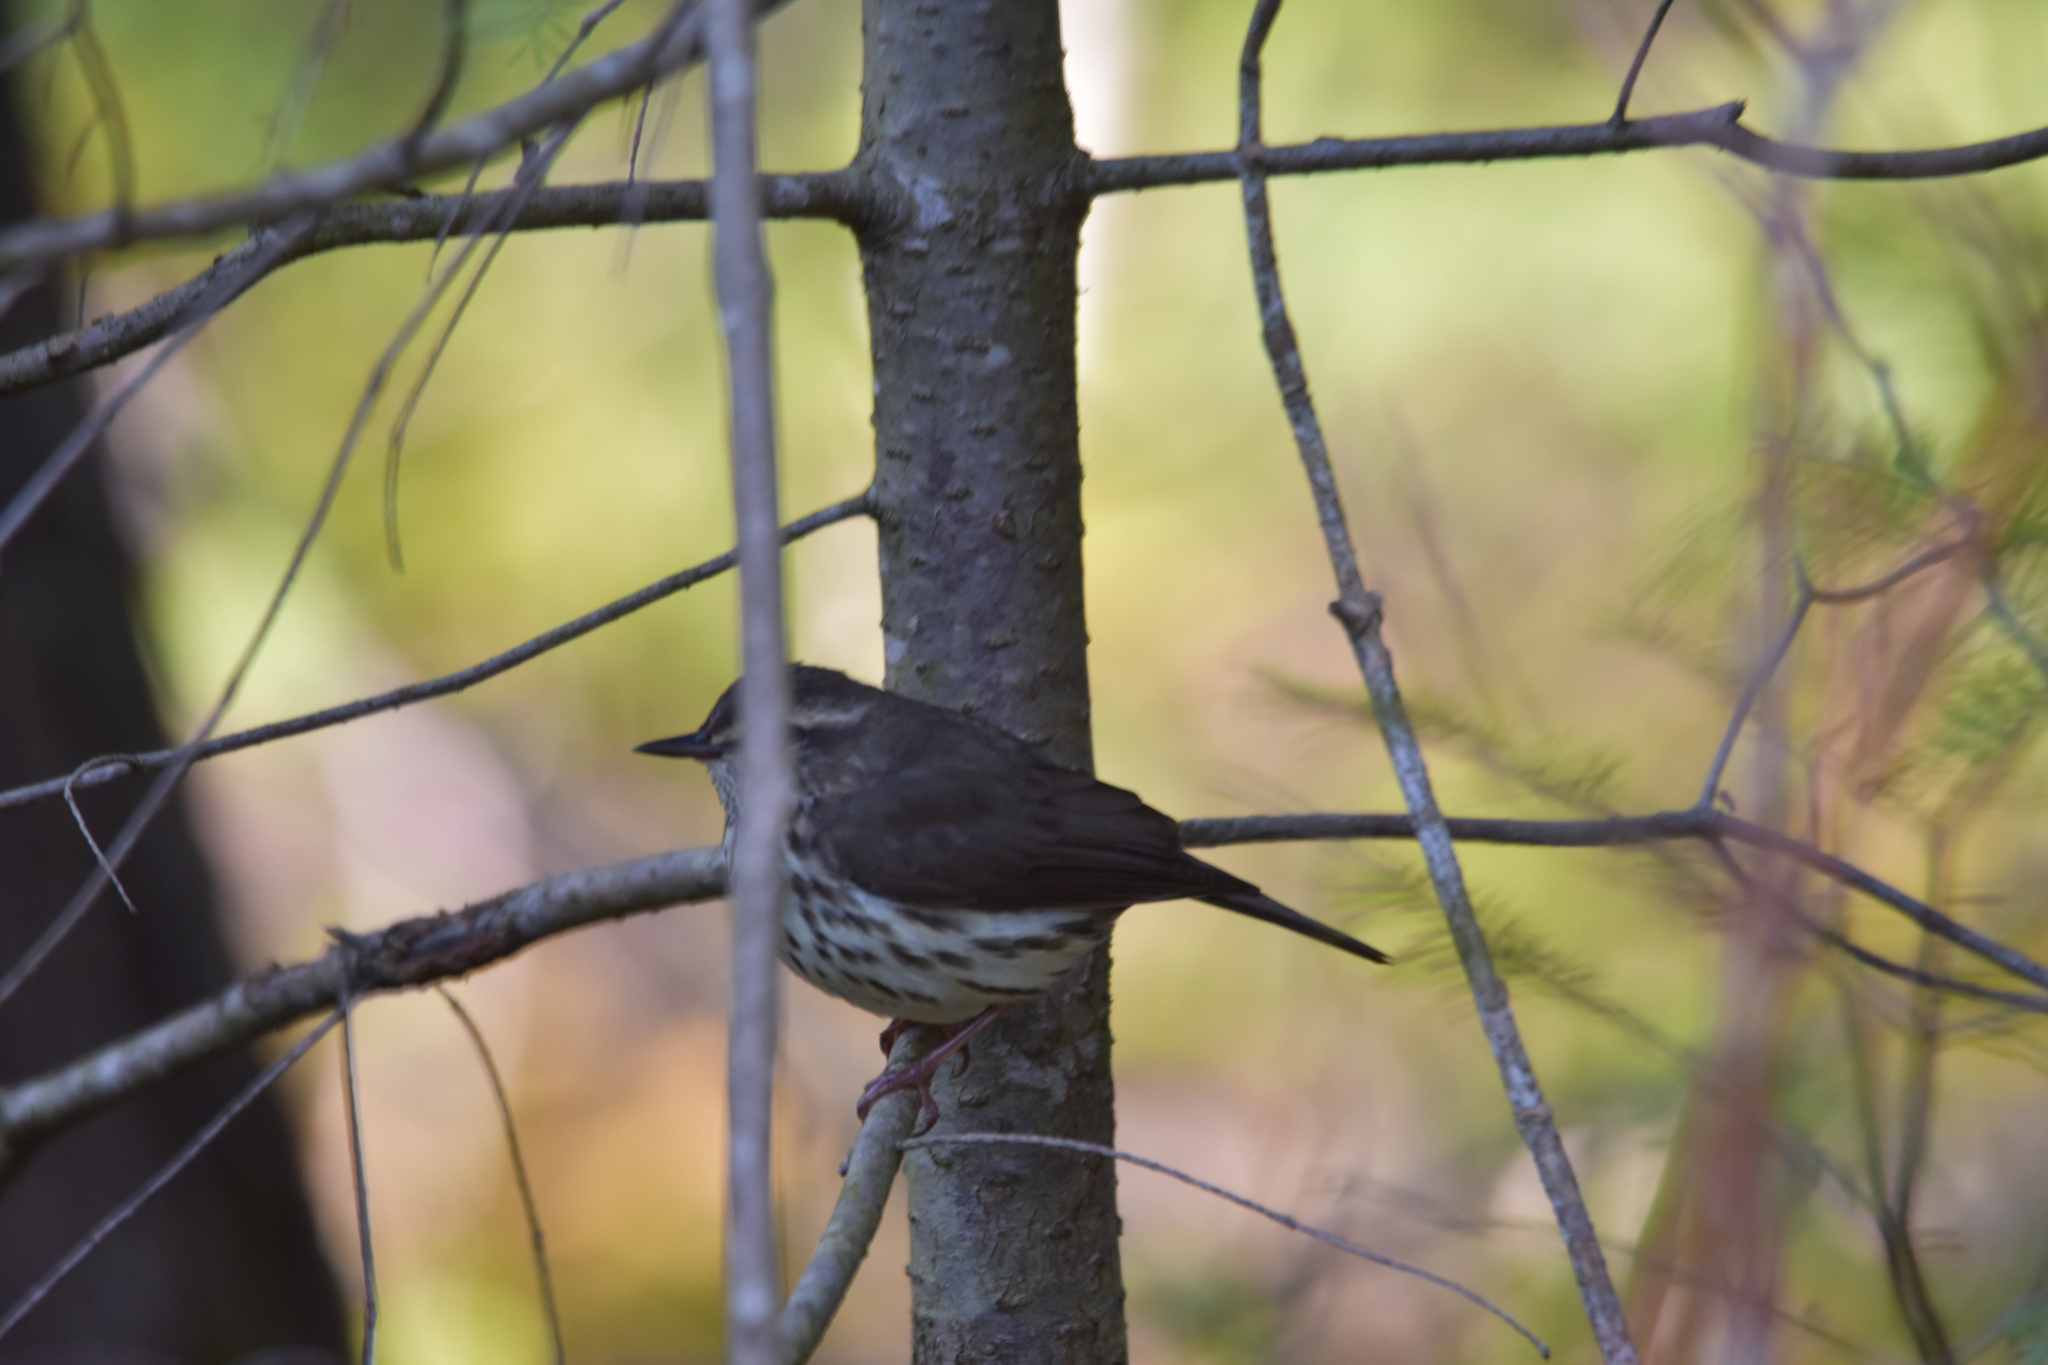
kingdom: Animalia
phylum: Chordata
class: Aves
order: Passeriformes
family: Parulidae
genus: Parkesia
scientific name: Parkesia noveboracensis
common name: Northern waterthrush
